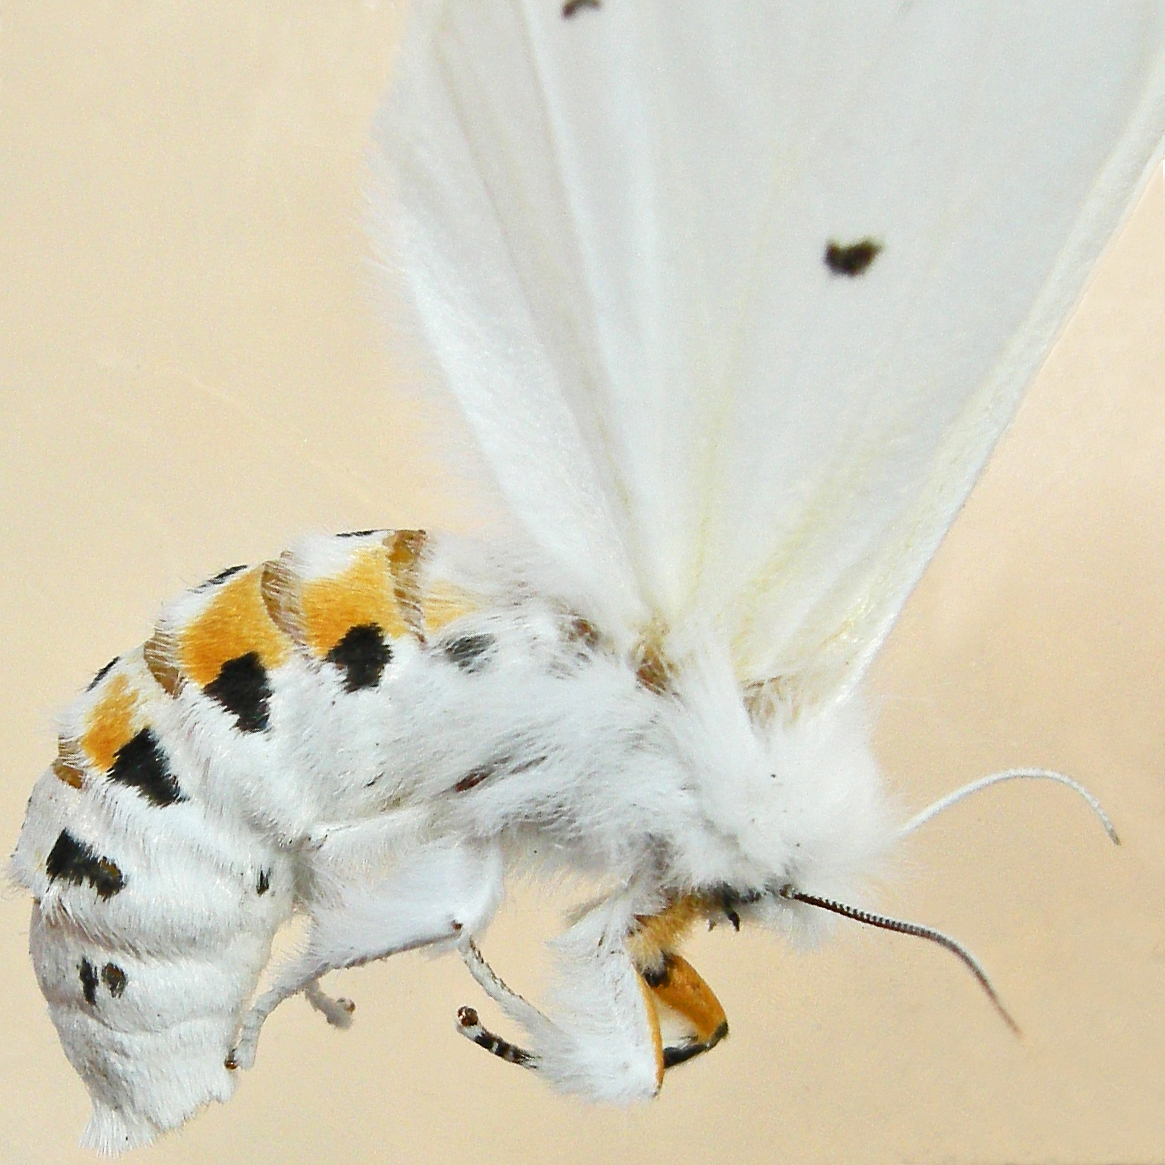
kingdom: Animalia
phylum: Arthropoda
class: Insecta
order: Lepidoptera
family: Erebidae
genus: Spilosoma
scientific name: Spilosoma virginica
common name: Virginia tiger moth
